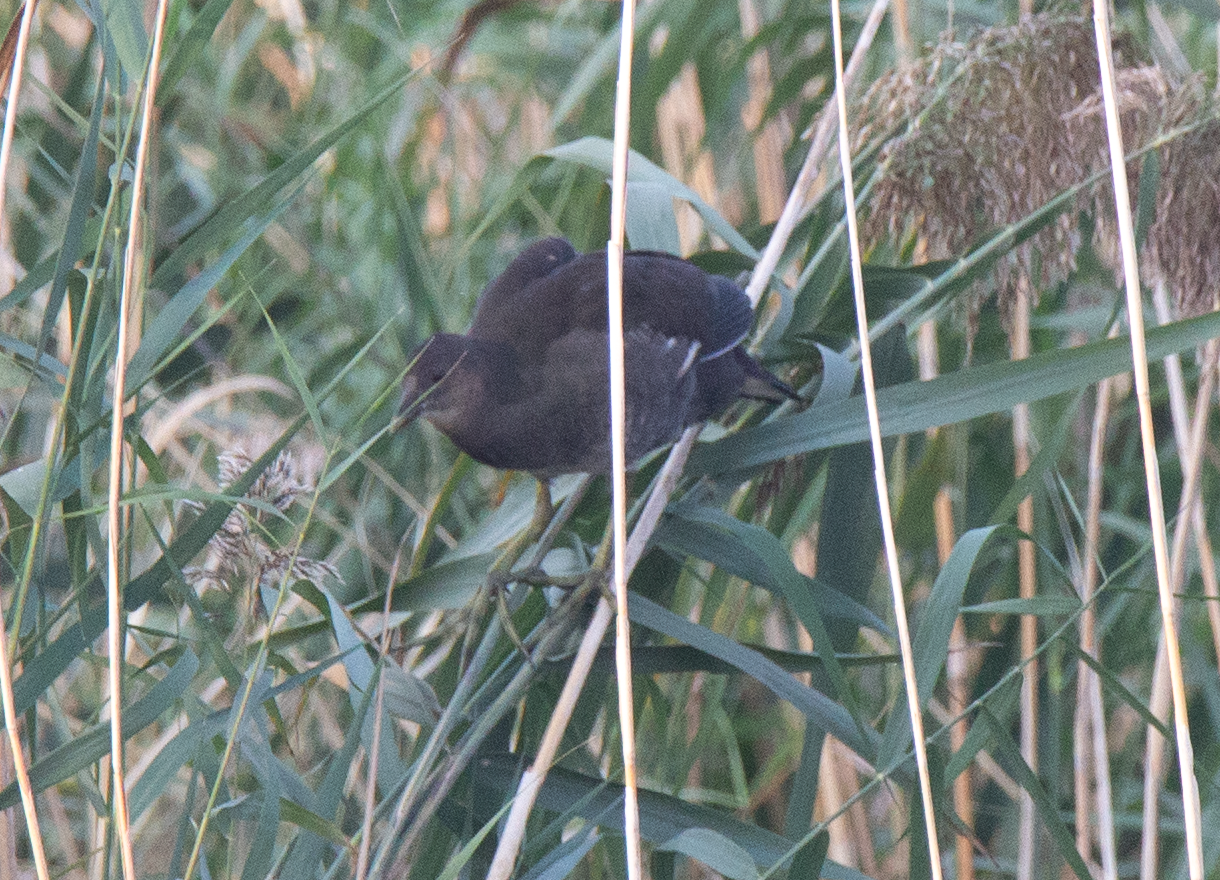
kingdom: Animalia
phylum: Chordata
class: Aves
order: Gruiformes
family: Rallidae
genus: Gallinula
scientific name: Gallinula chloropus
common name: Common moorhen
